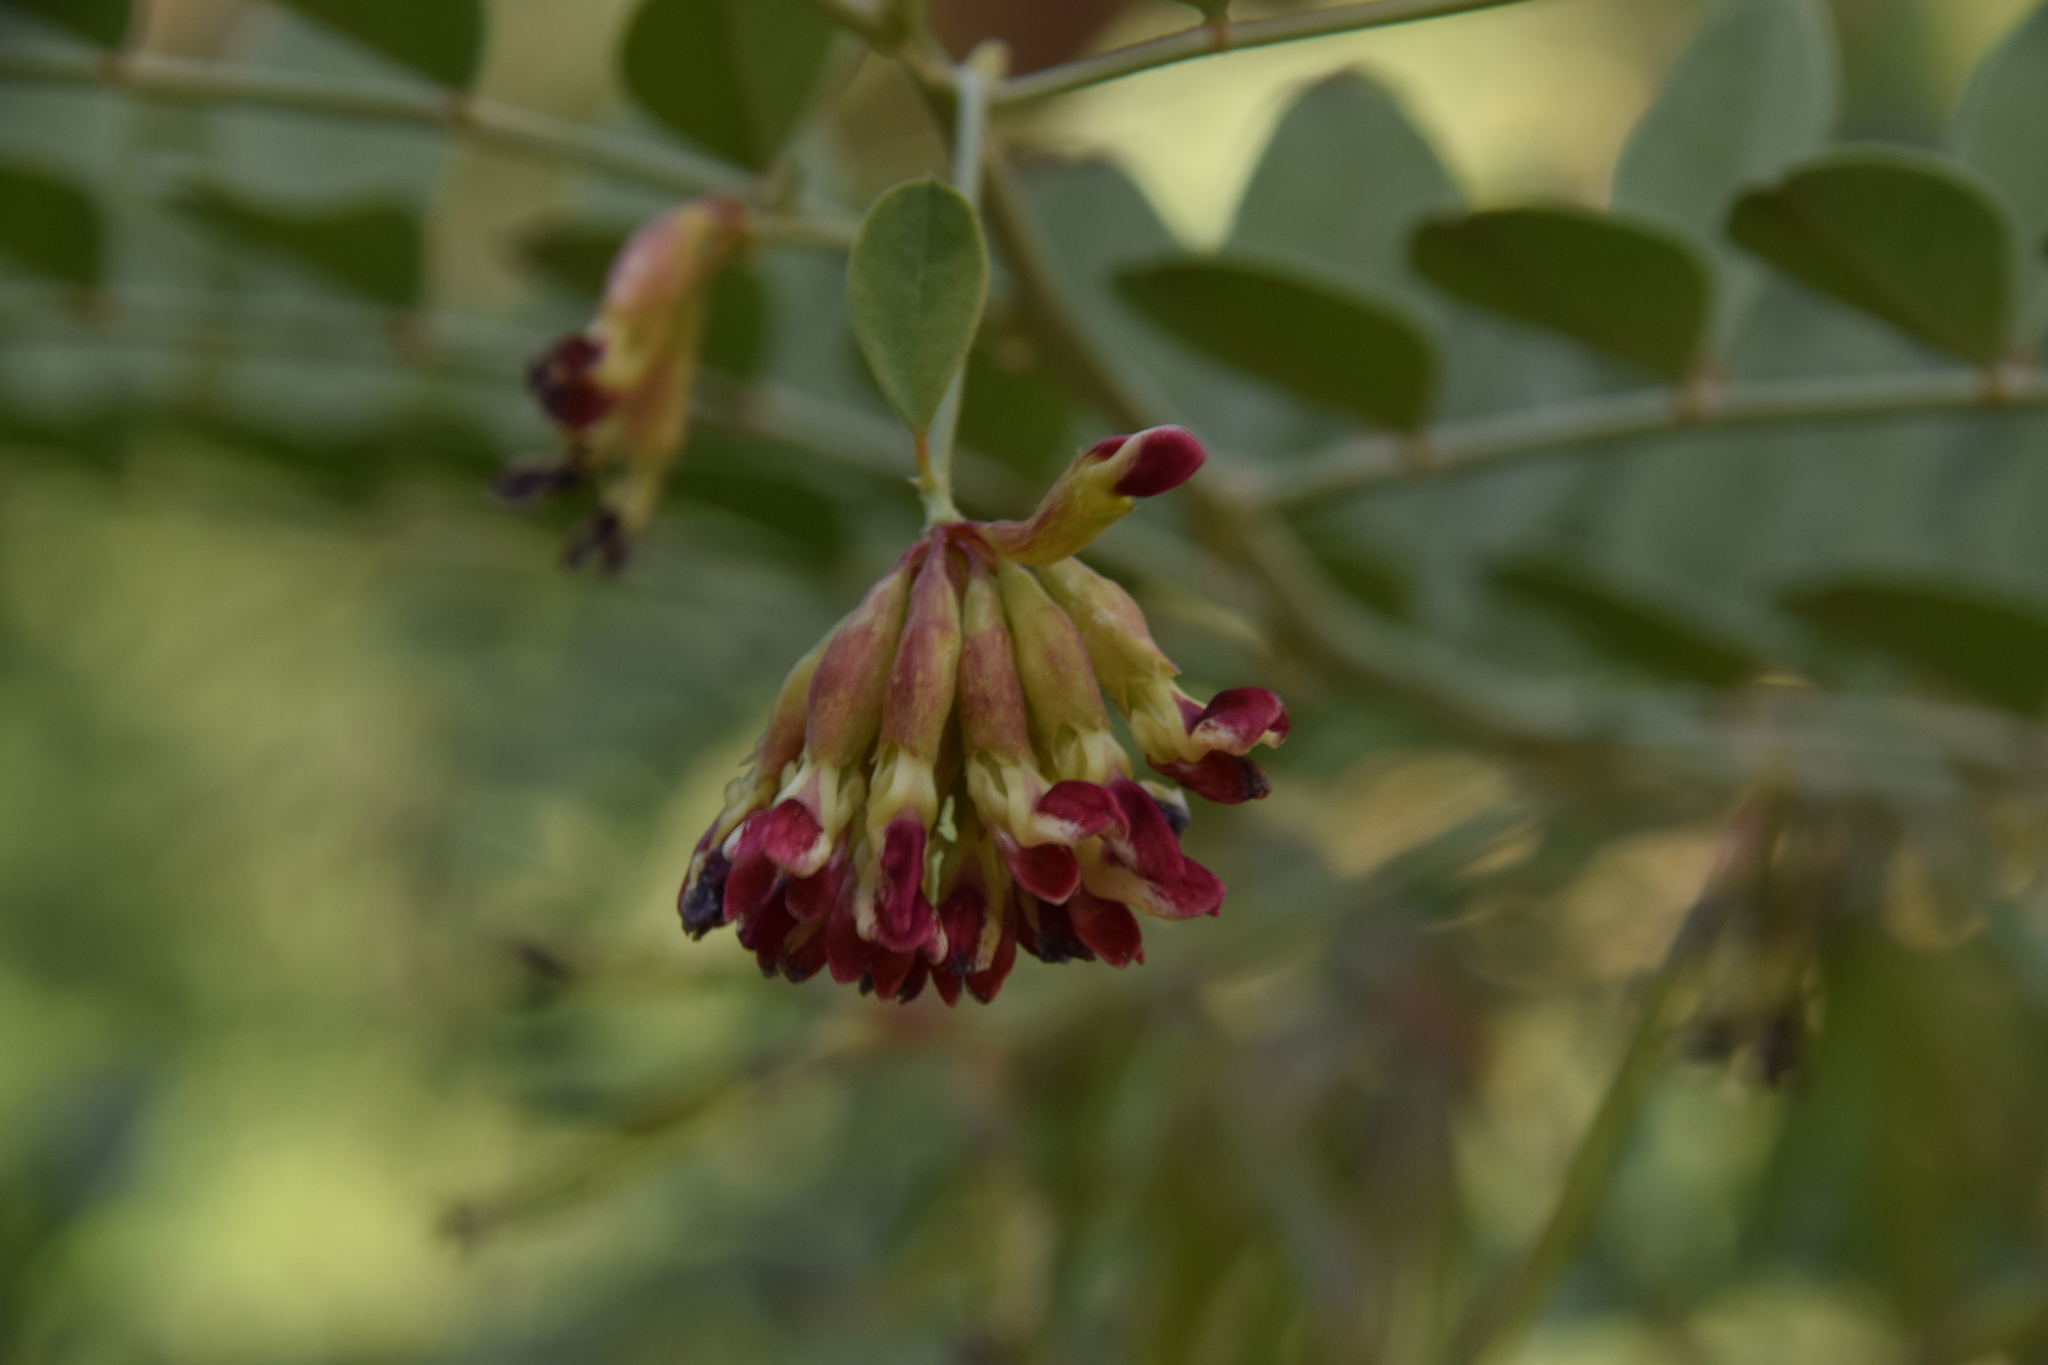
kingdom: Plantae
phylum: Tracheophyta
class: Magnoliopsida
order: Fabales
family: Fabaceae
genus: Hosackia
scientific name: Hosackia crassifolia
